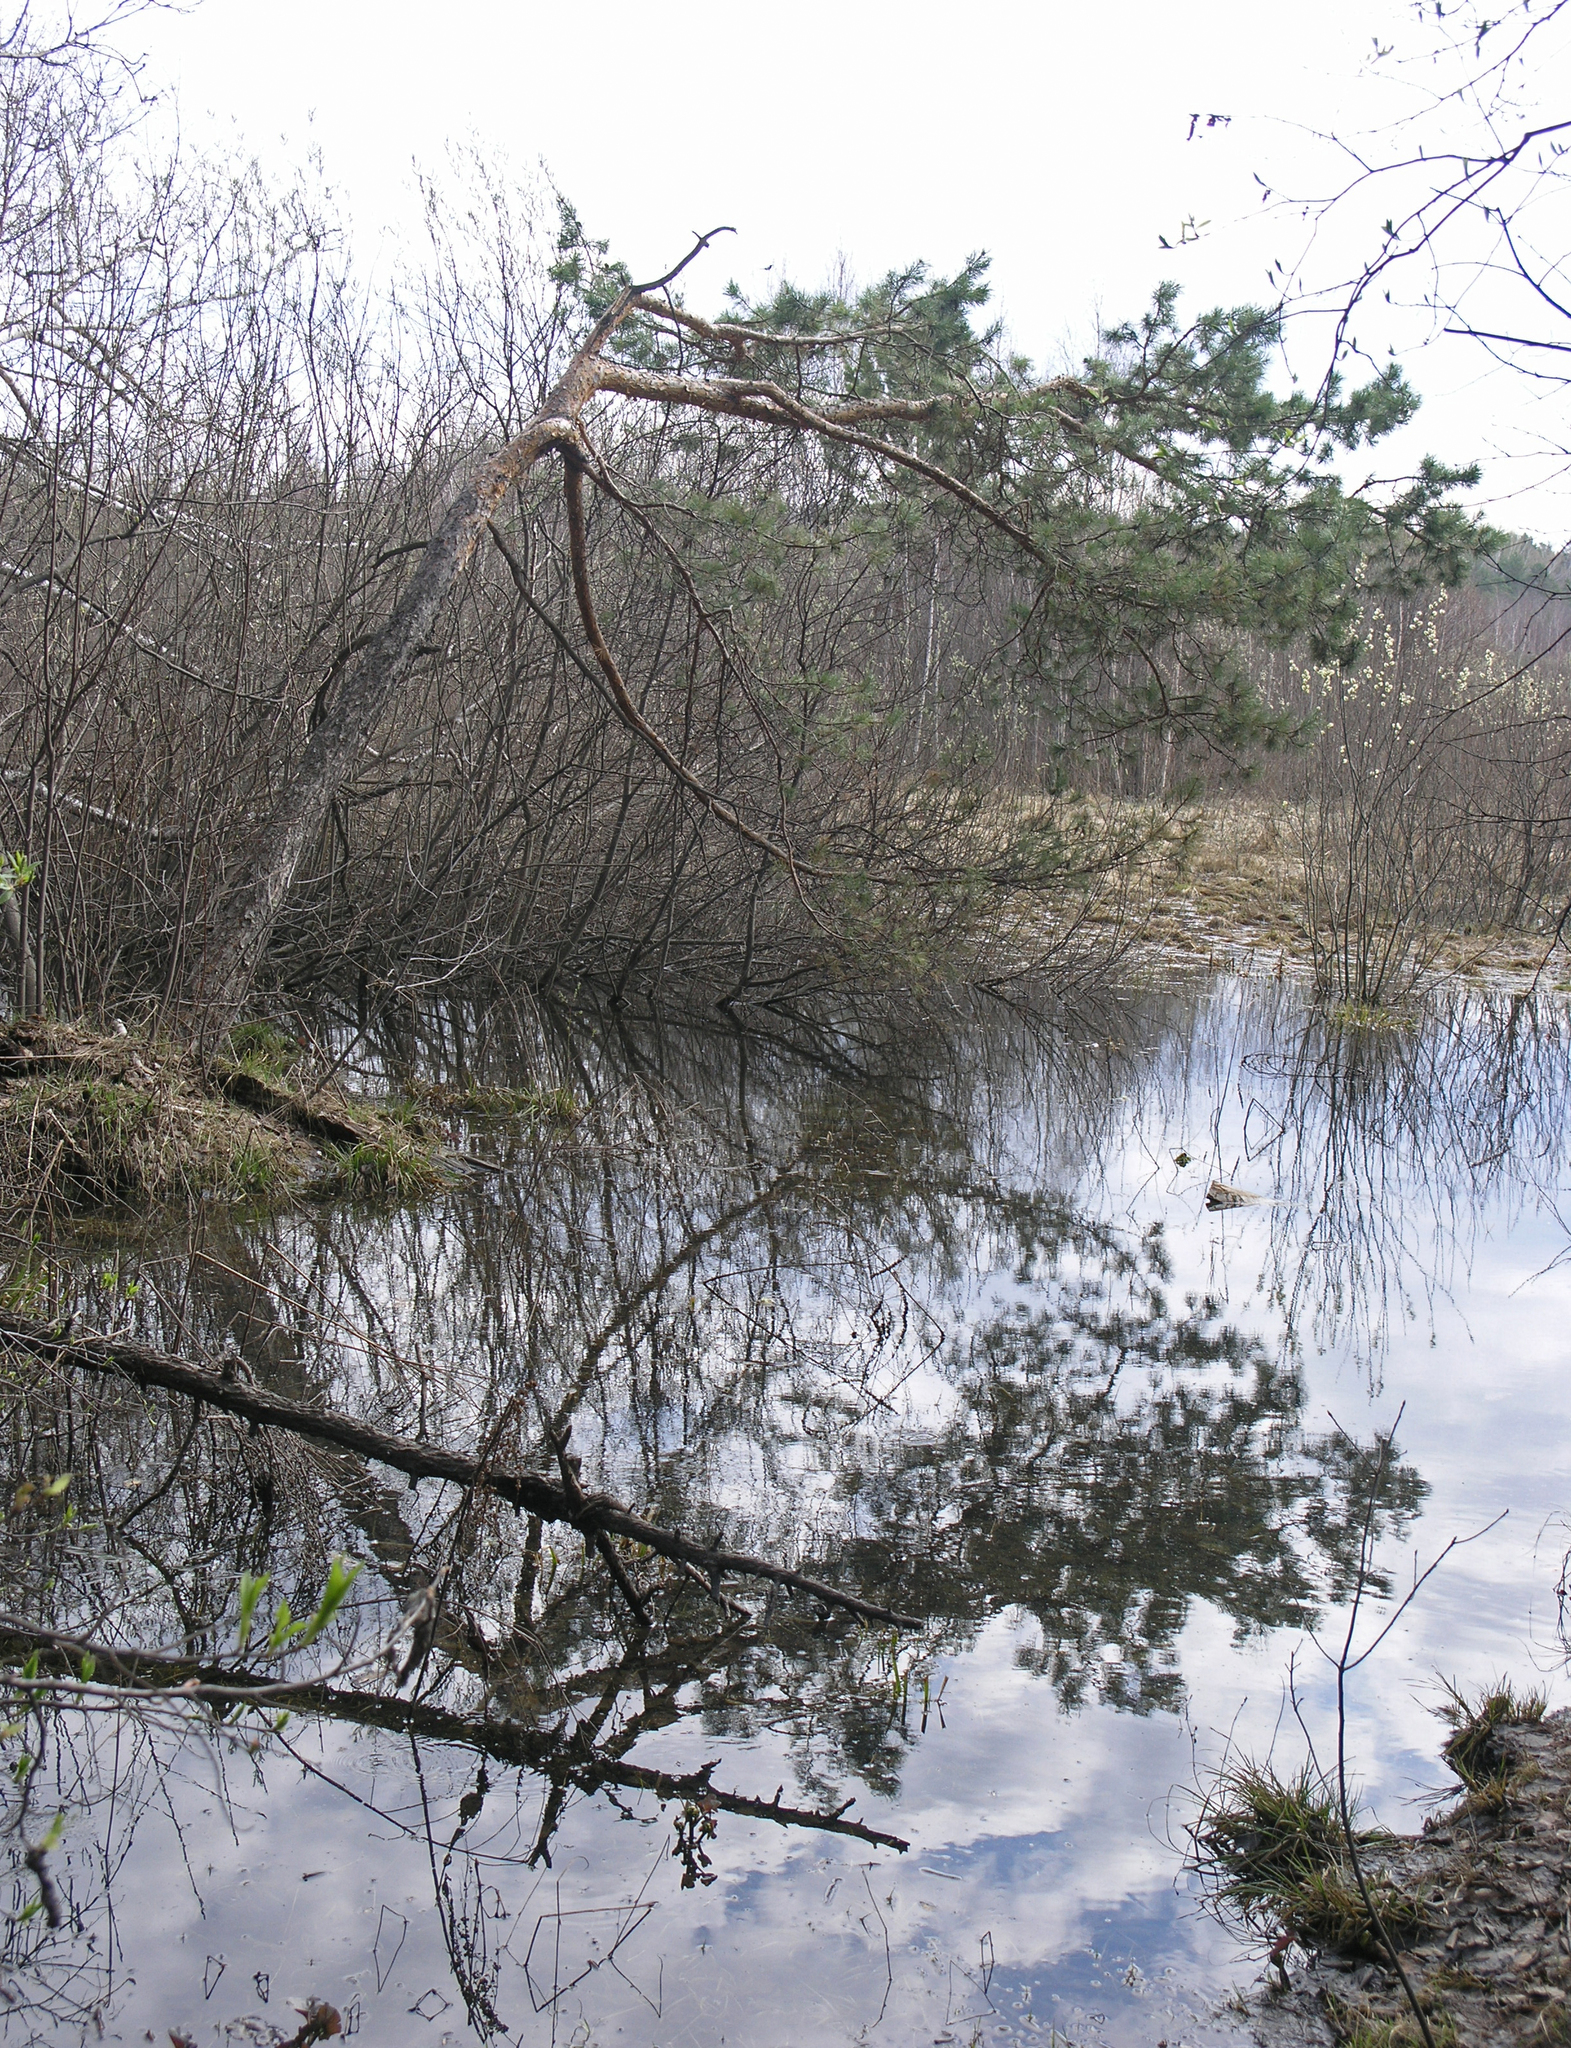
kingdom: Plantae
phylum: Tracheophyta
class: Pinopsida
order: Pinales
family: Pinaceae
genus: Pinus
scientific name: Pinus sylvestris
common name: Scots pine
